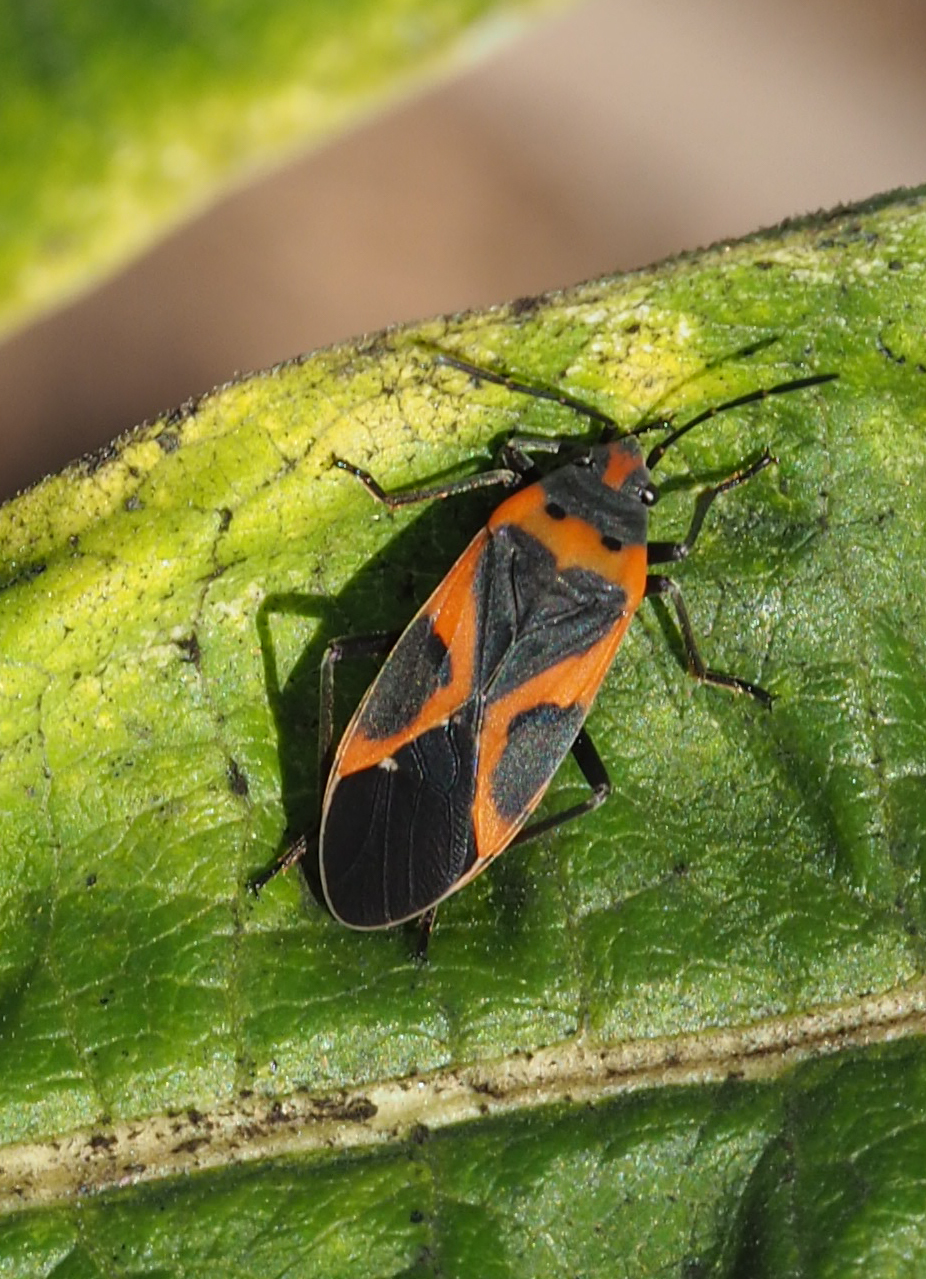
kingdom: Animalia
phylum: Arthropoda
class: Insecta
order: Hemiptera
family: Lygaeidae
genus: Lygaeus
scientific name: Lygaeus kalmii
